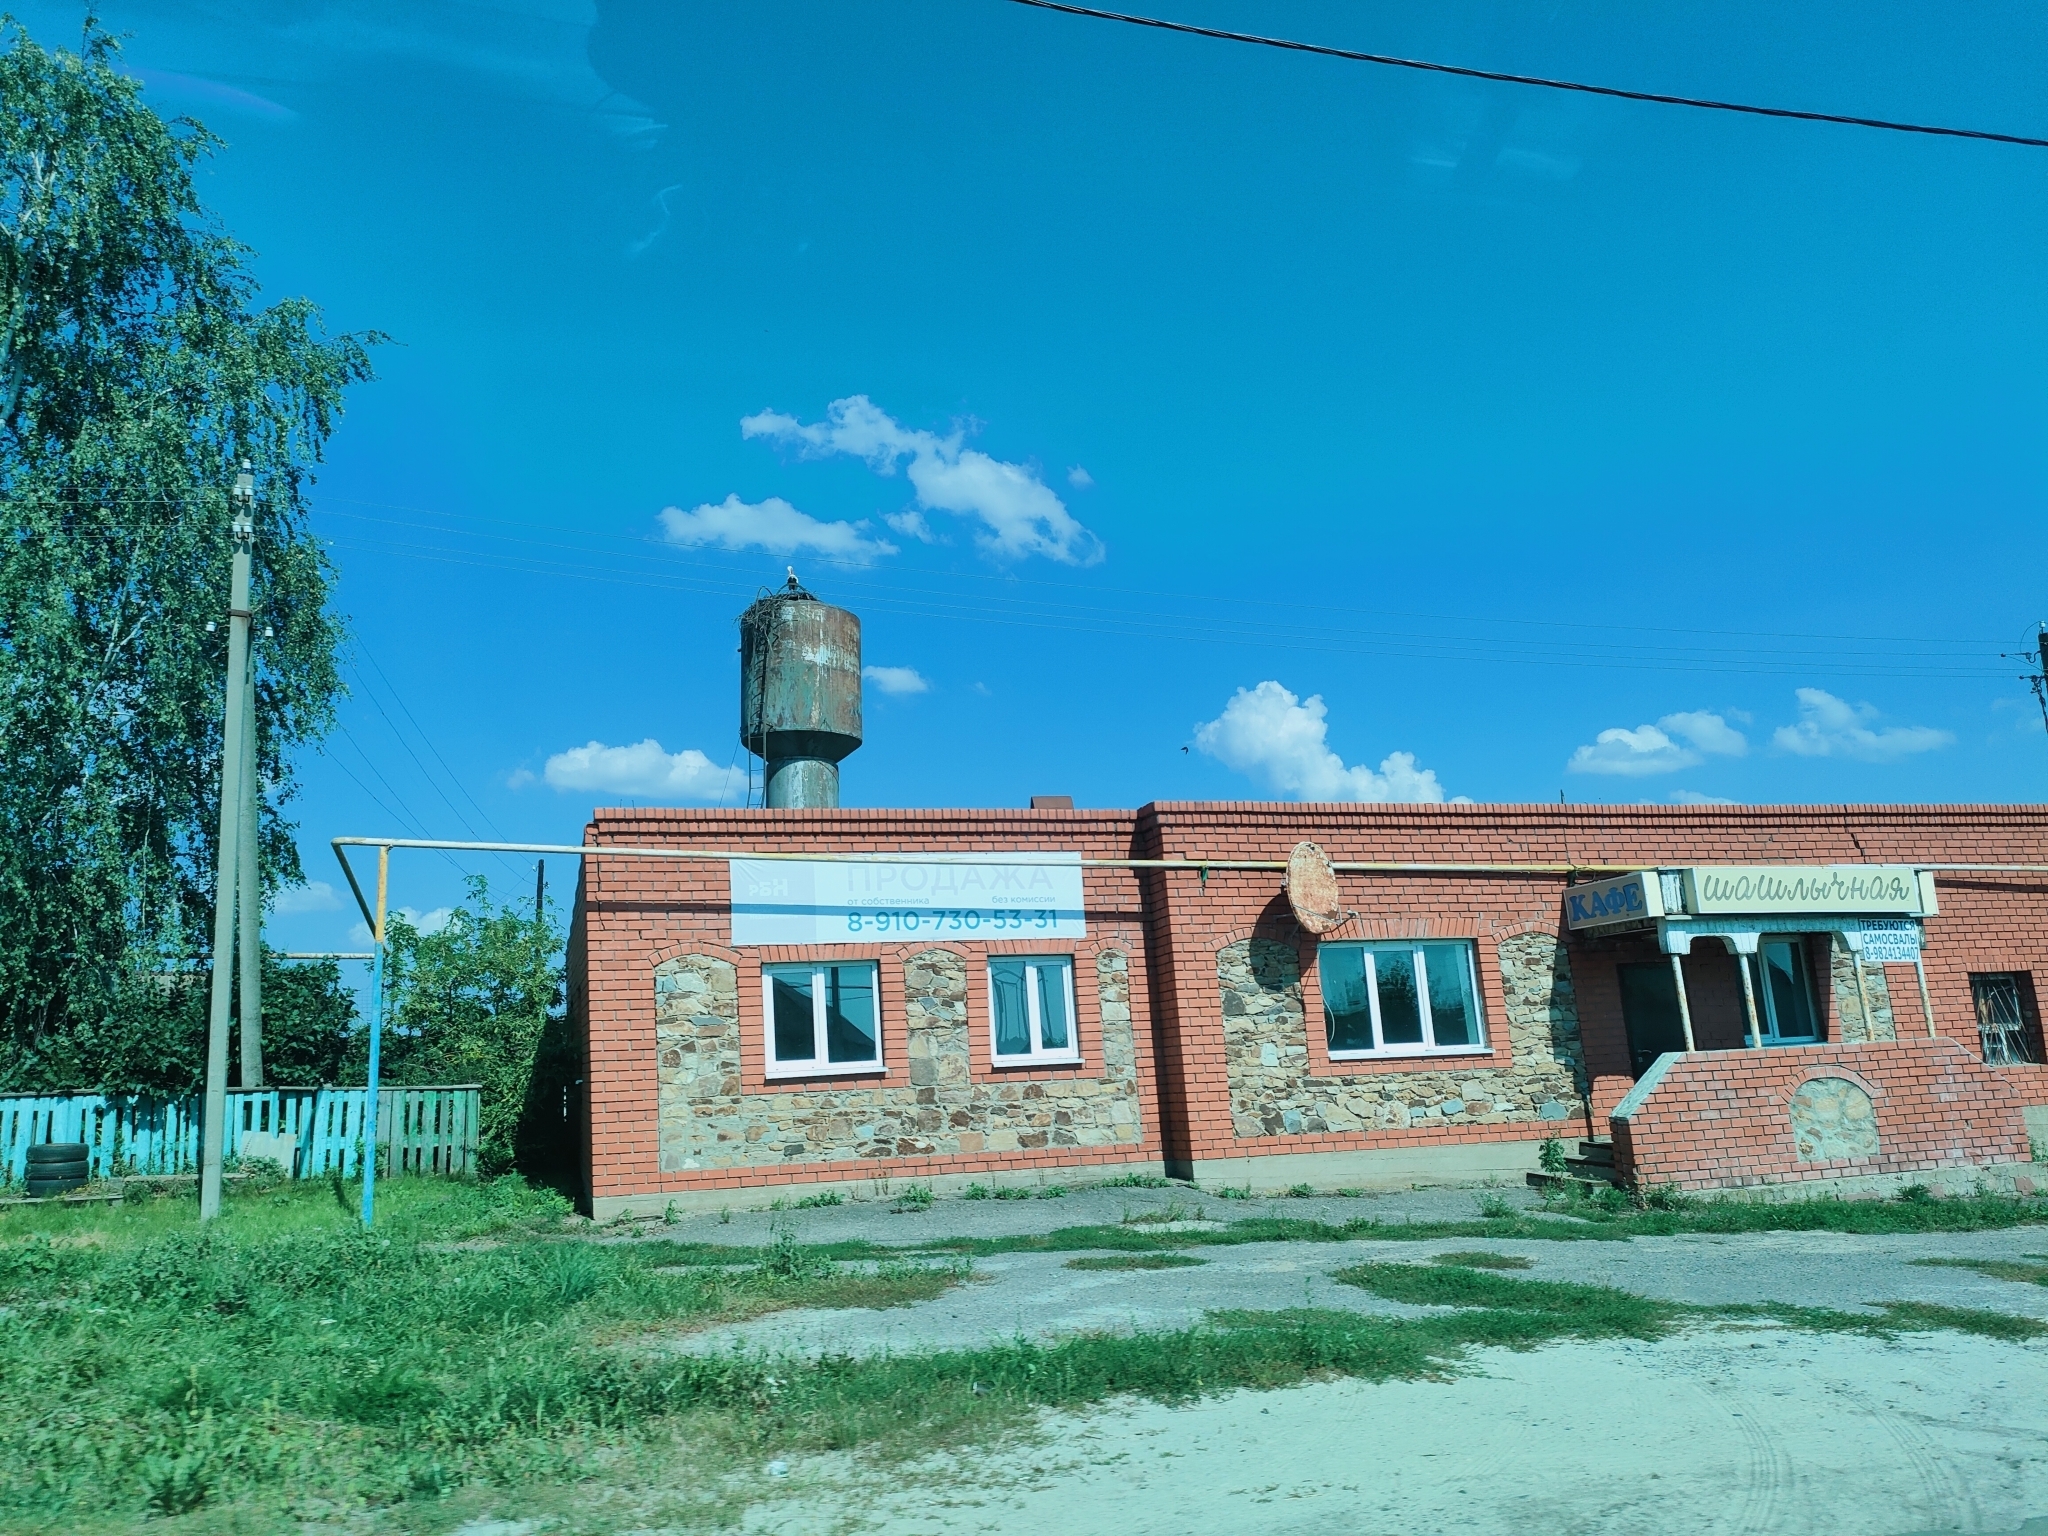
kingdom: Animalia
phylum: Chordata
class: Aves
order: Ciconiiformes
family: Ciconiidae
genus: Ciconia
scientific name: Ciconia ciconia
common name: White stork
